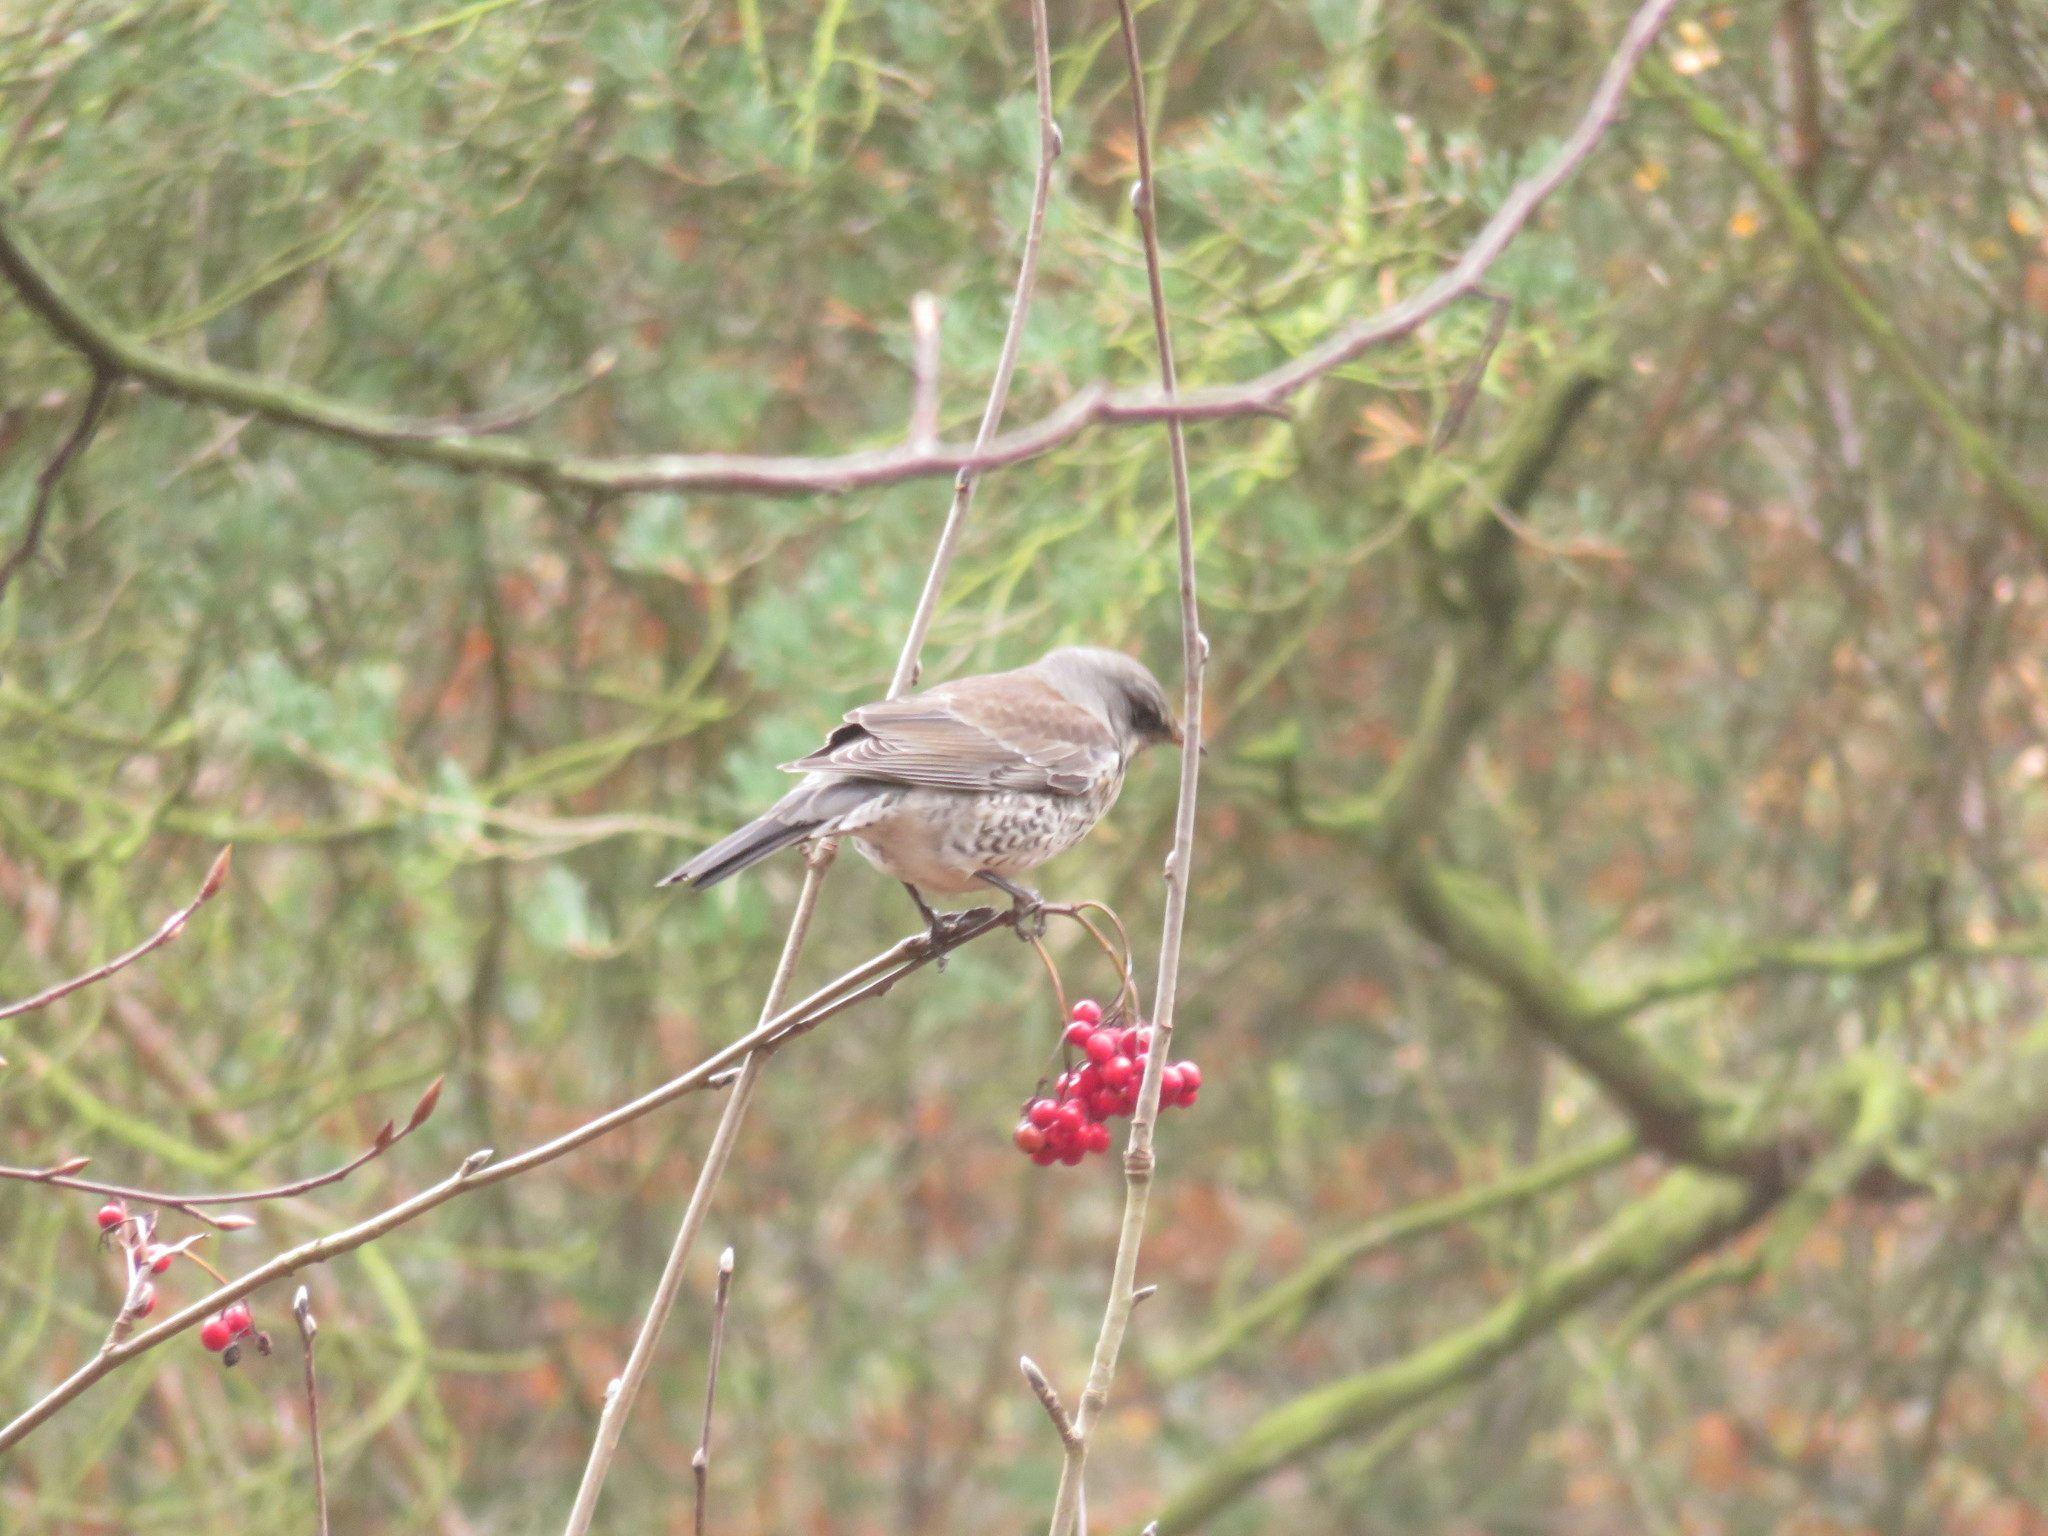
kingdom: Animalia
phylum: Chordata
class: Aves
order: Passeriformes
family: Turdidae
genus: Turdus
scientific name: Turdus pilaris
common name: Fieldfare
